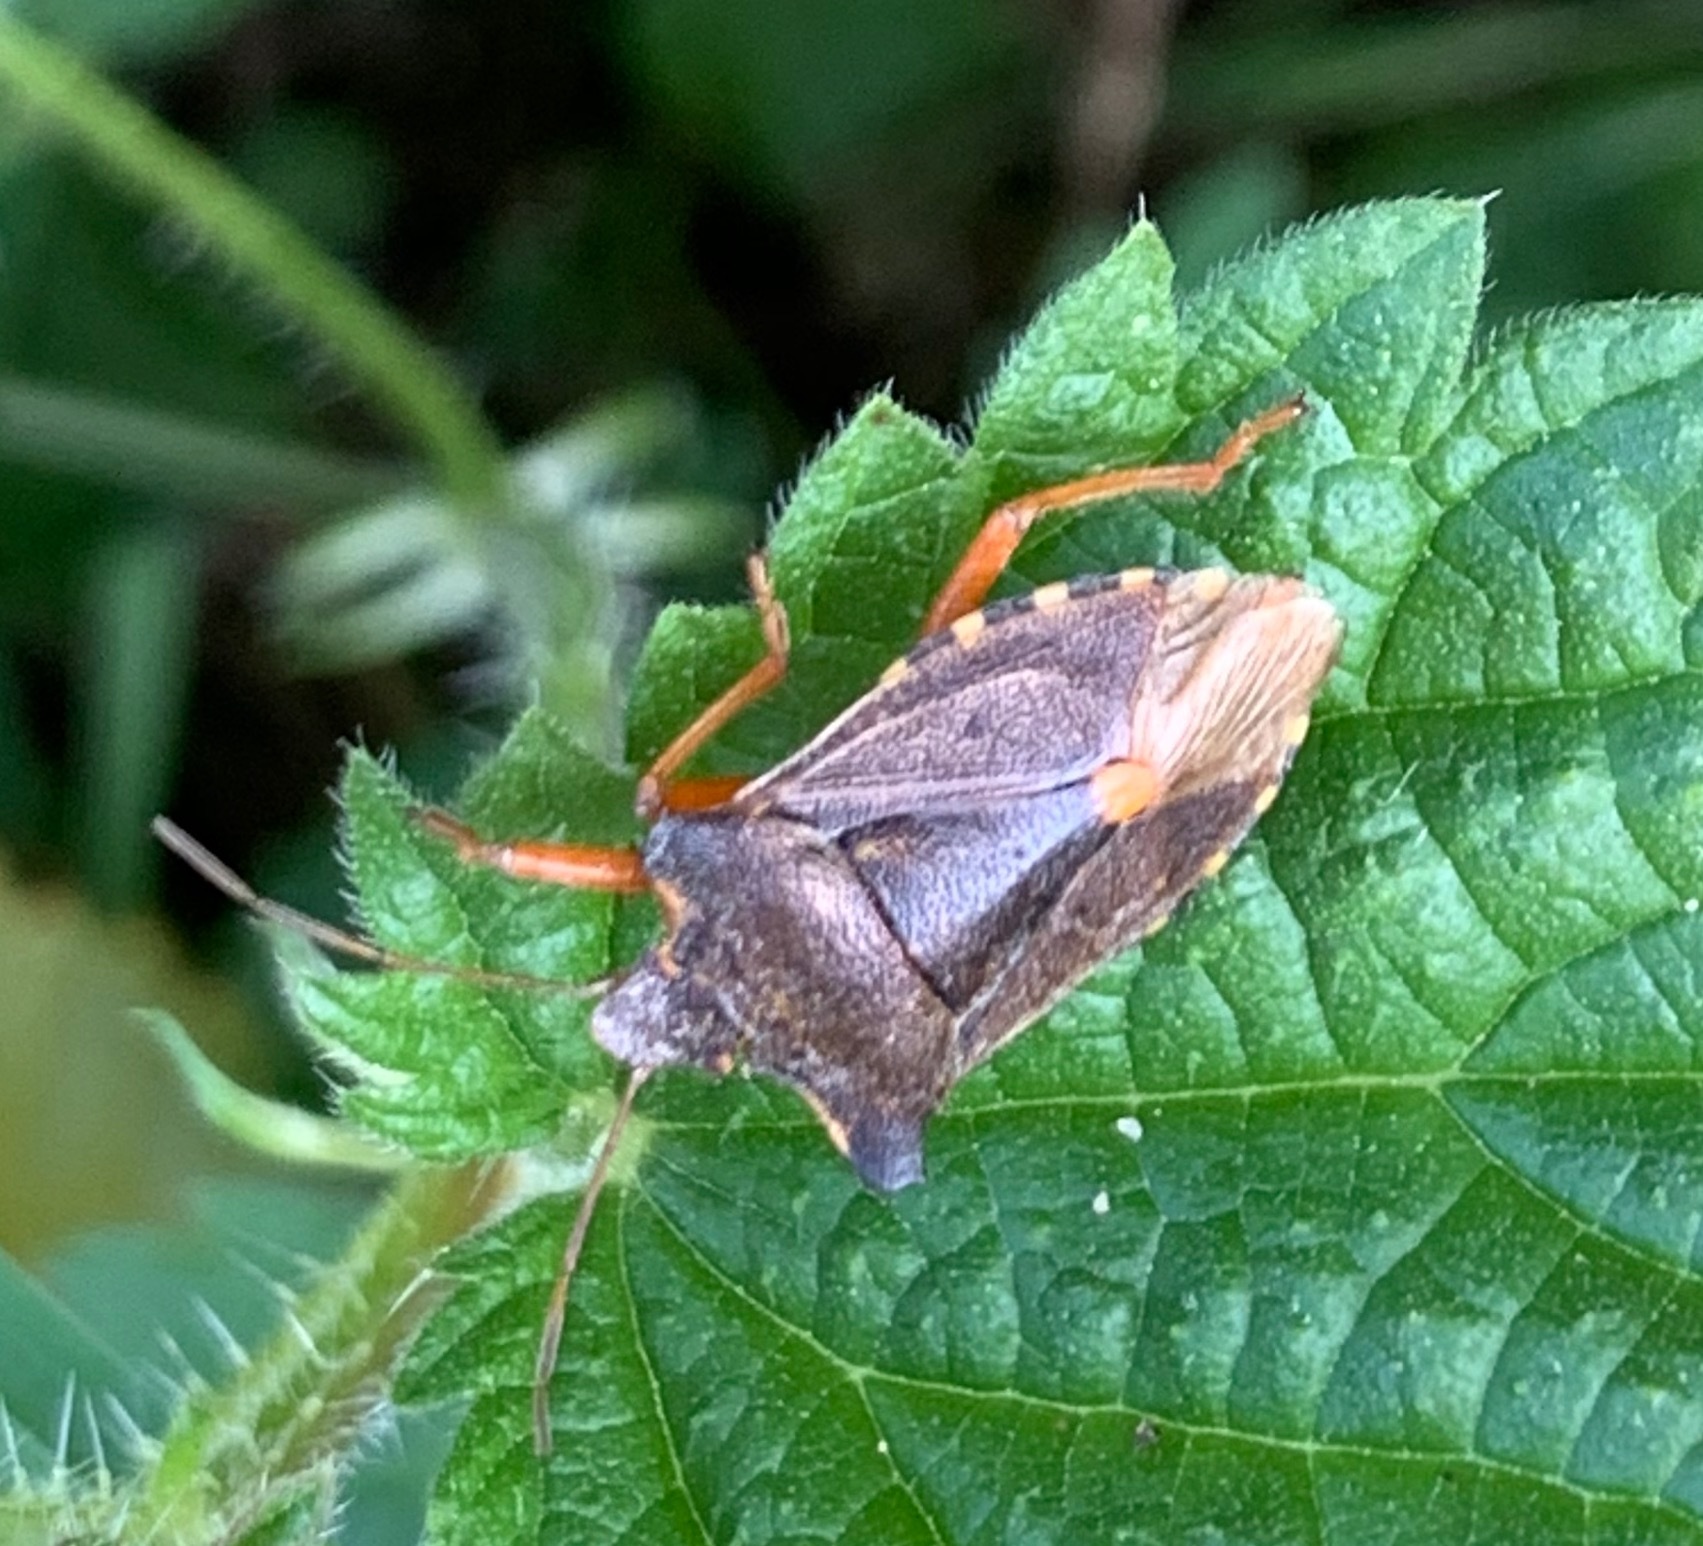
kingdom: Animalia
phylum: Arthropoda
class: Insecta
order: Hemiptera
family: Pentatomidae
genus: Pentatoma
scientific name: Pentatoma rufipes
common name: Forest bug
